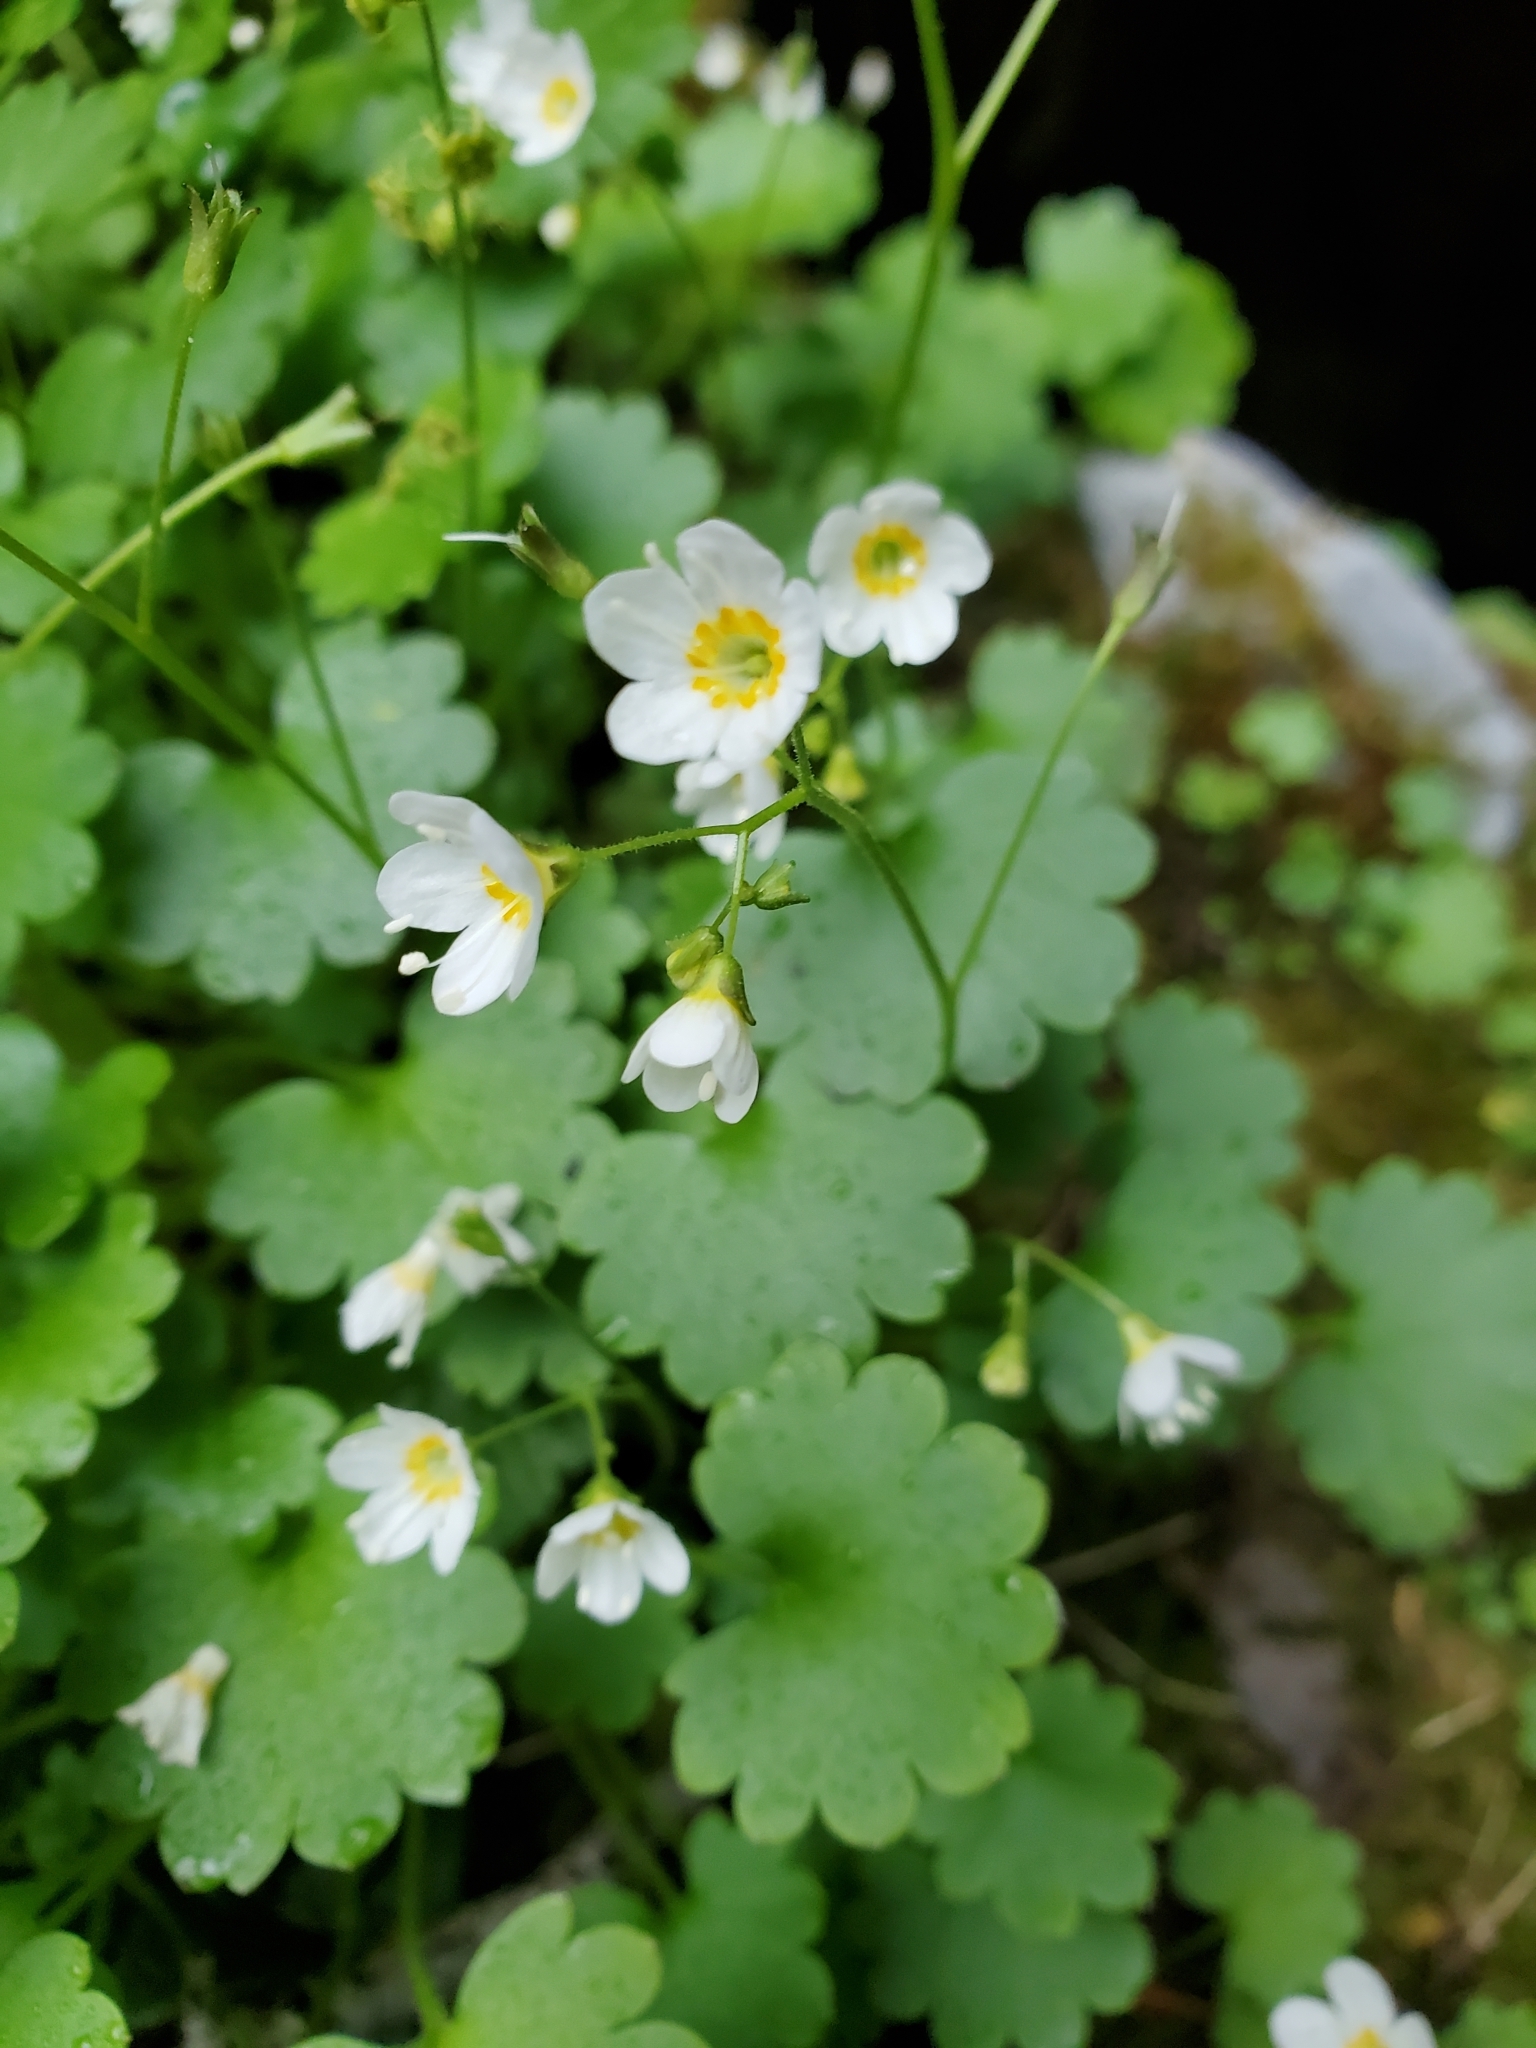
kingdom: Plantae
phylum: Tracheophyta
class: Magnoliopsida
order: Boraginales
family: Hydrophyllaceae
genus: Romanzoffia
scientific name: Romanzoffia sitchensis
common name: Sitka mistmaid
